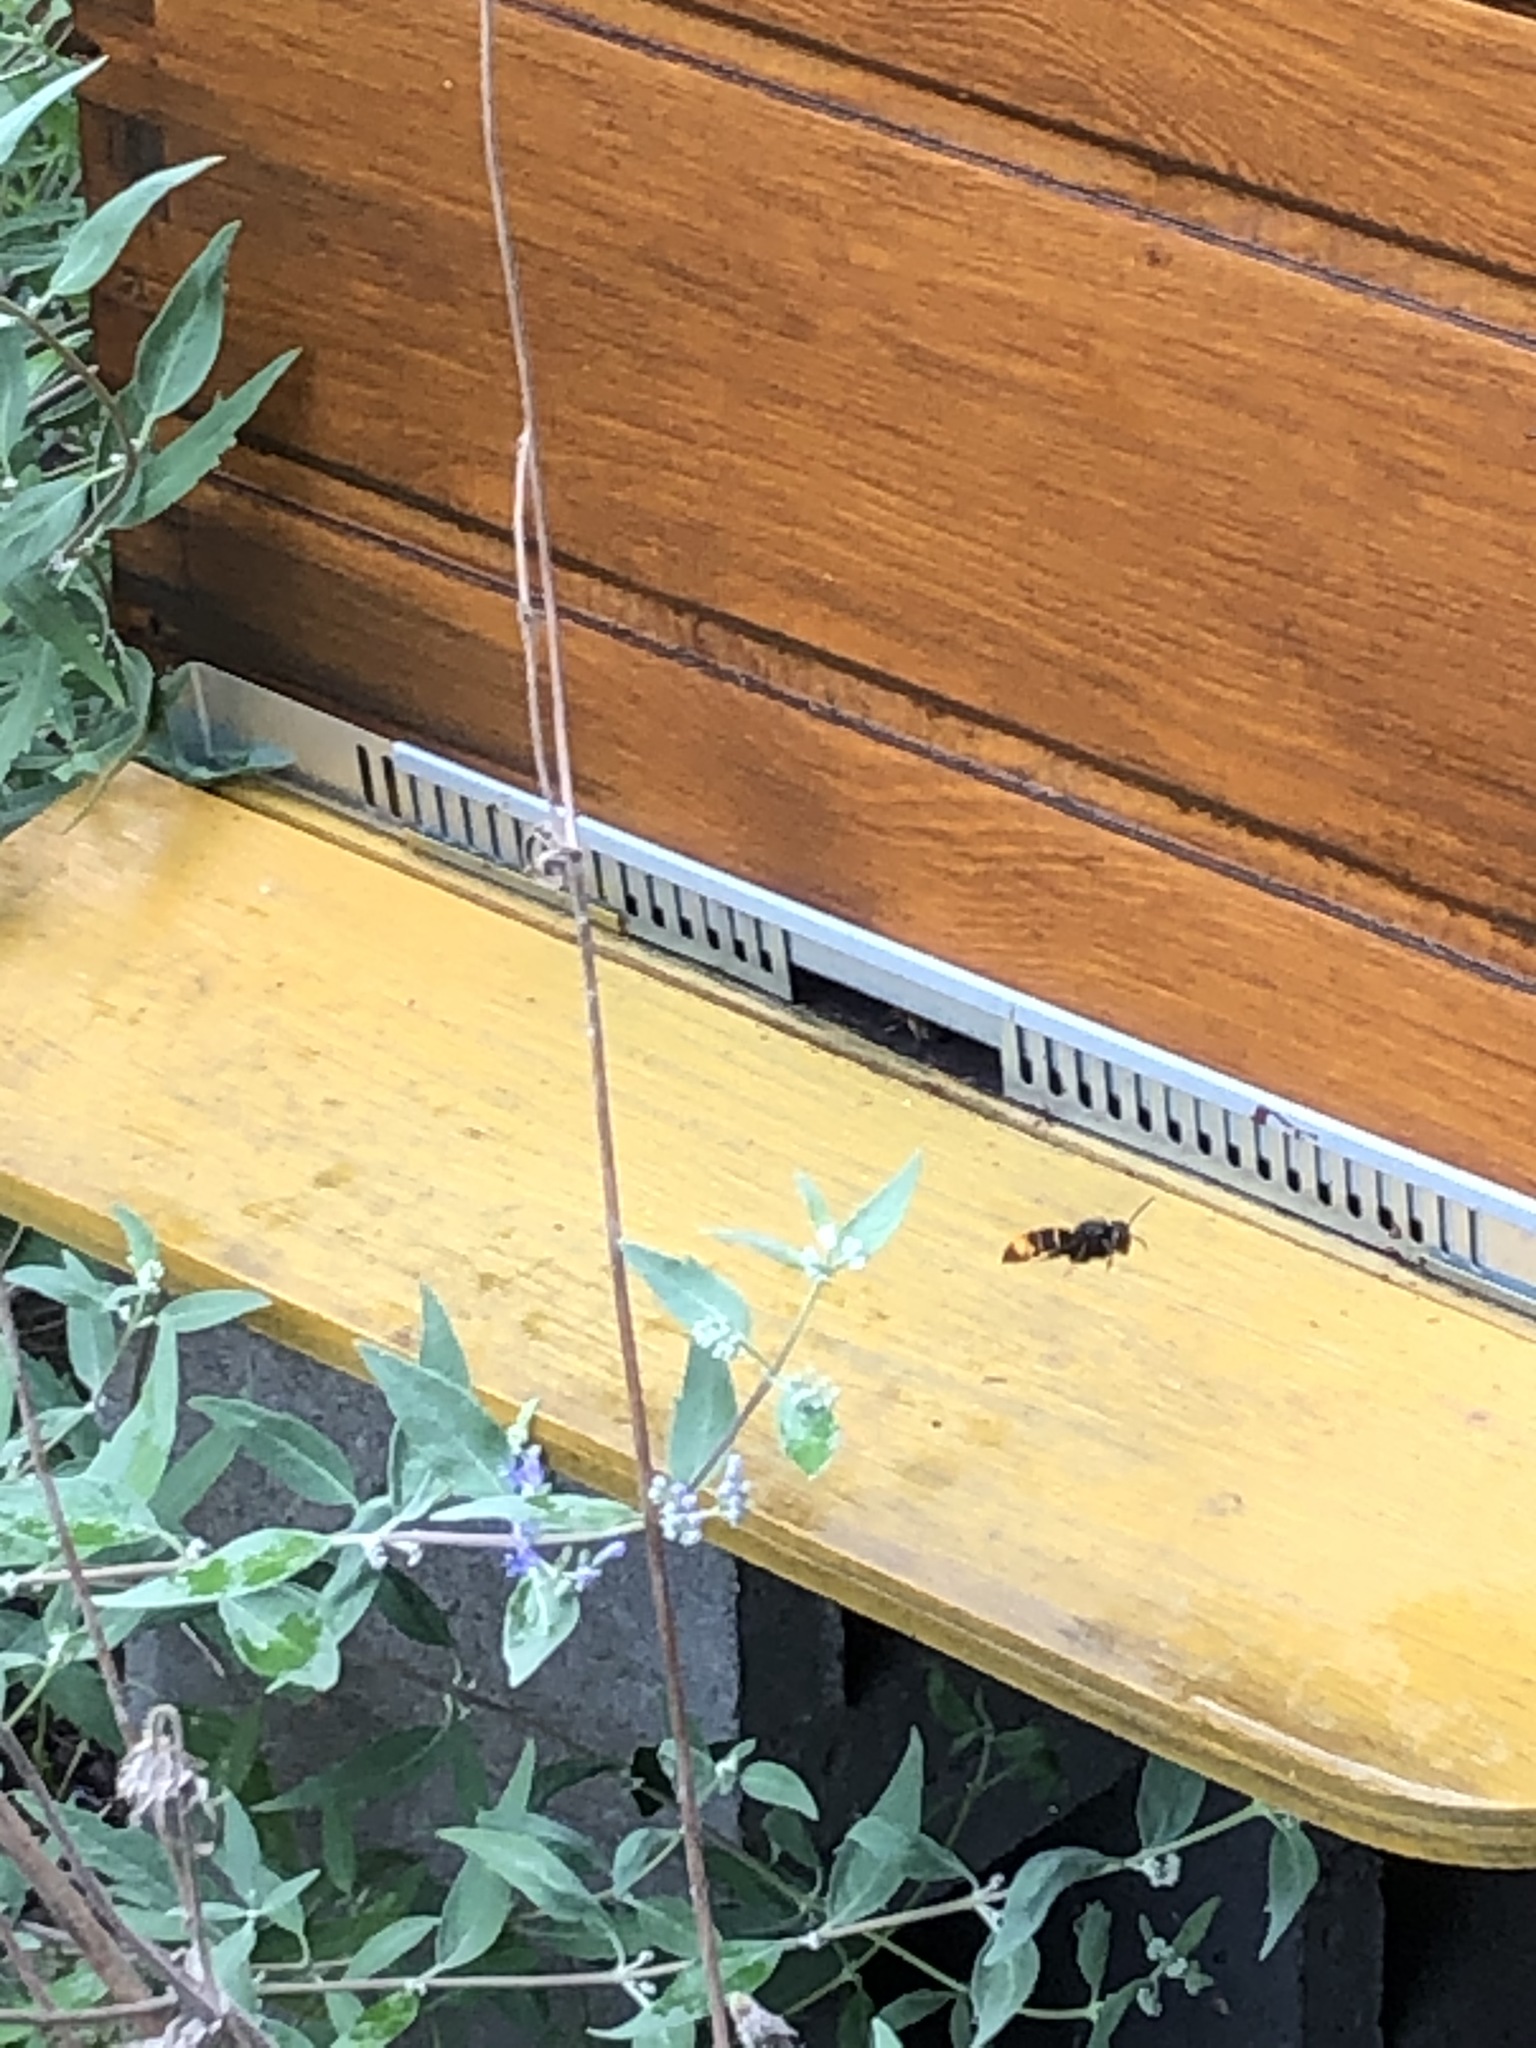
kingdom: Animalia
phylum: Arthropoda
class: Insecta
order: Hymenoptera
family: Vespidae
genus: Vespa
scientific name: Vespa velutina
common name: Asian hornet
